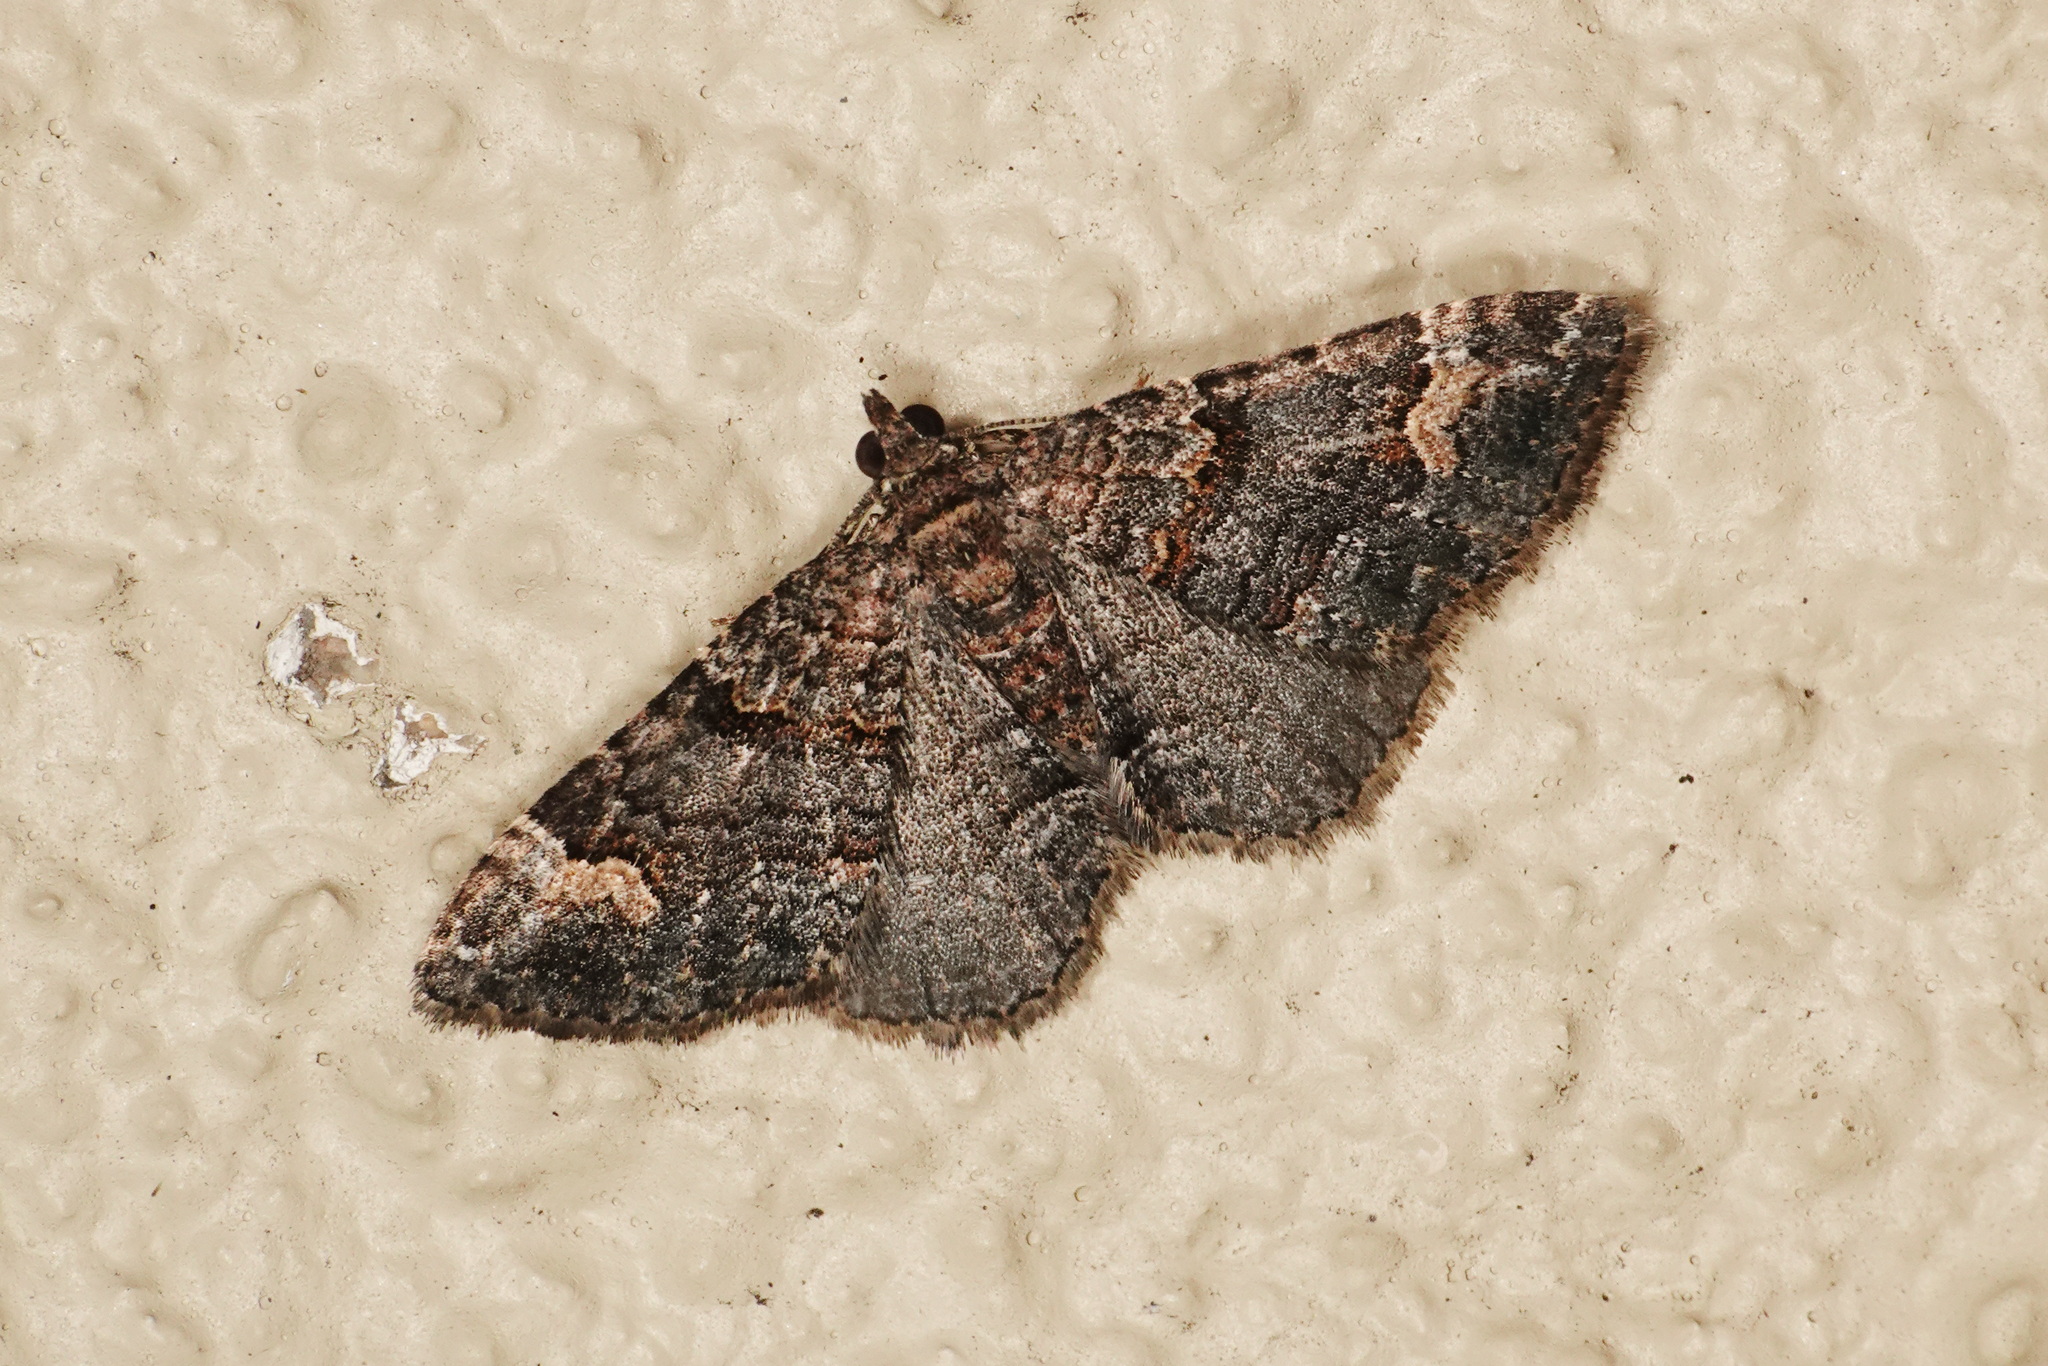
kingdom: Animalia
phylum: Arthropoda
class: Insecta
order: Lepidoptera
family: Geometridae
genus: Epyaxa
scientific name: Epyaxa sodaliata
